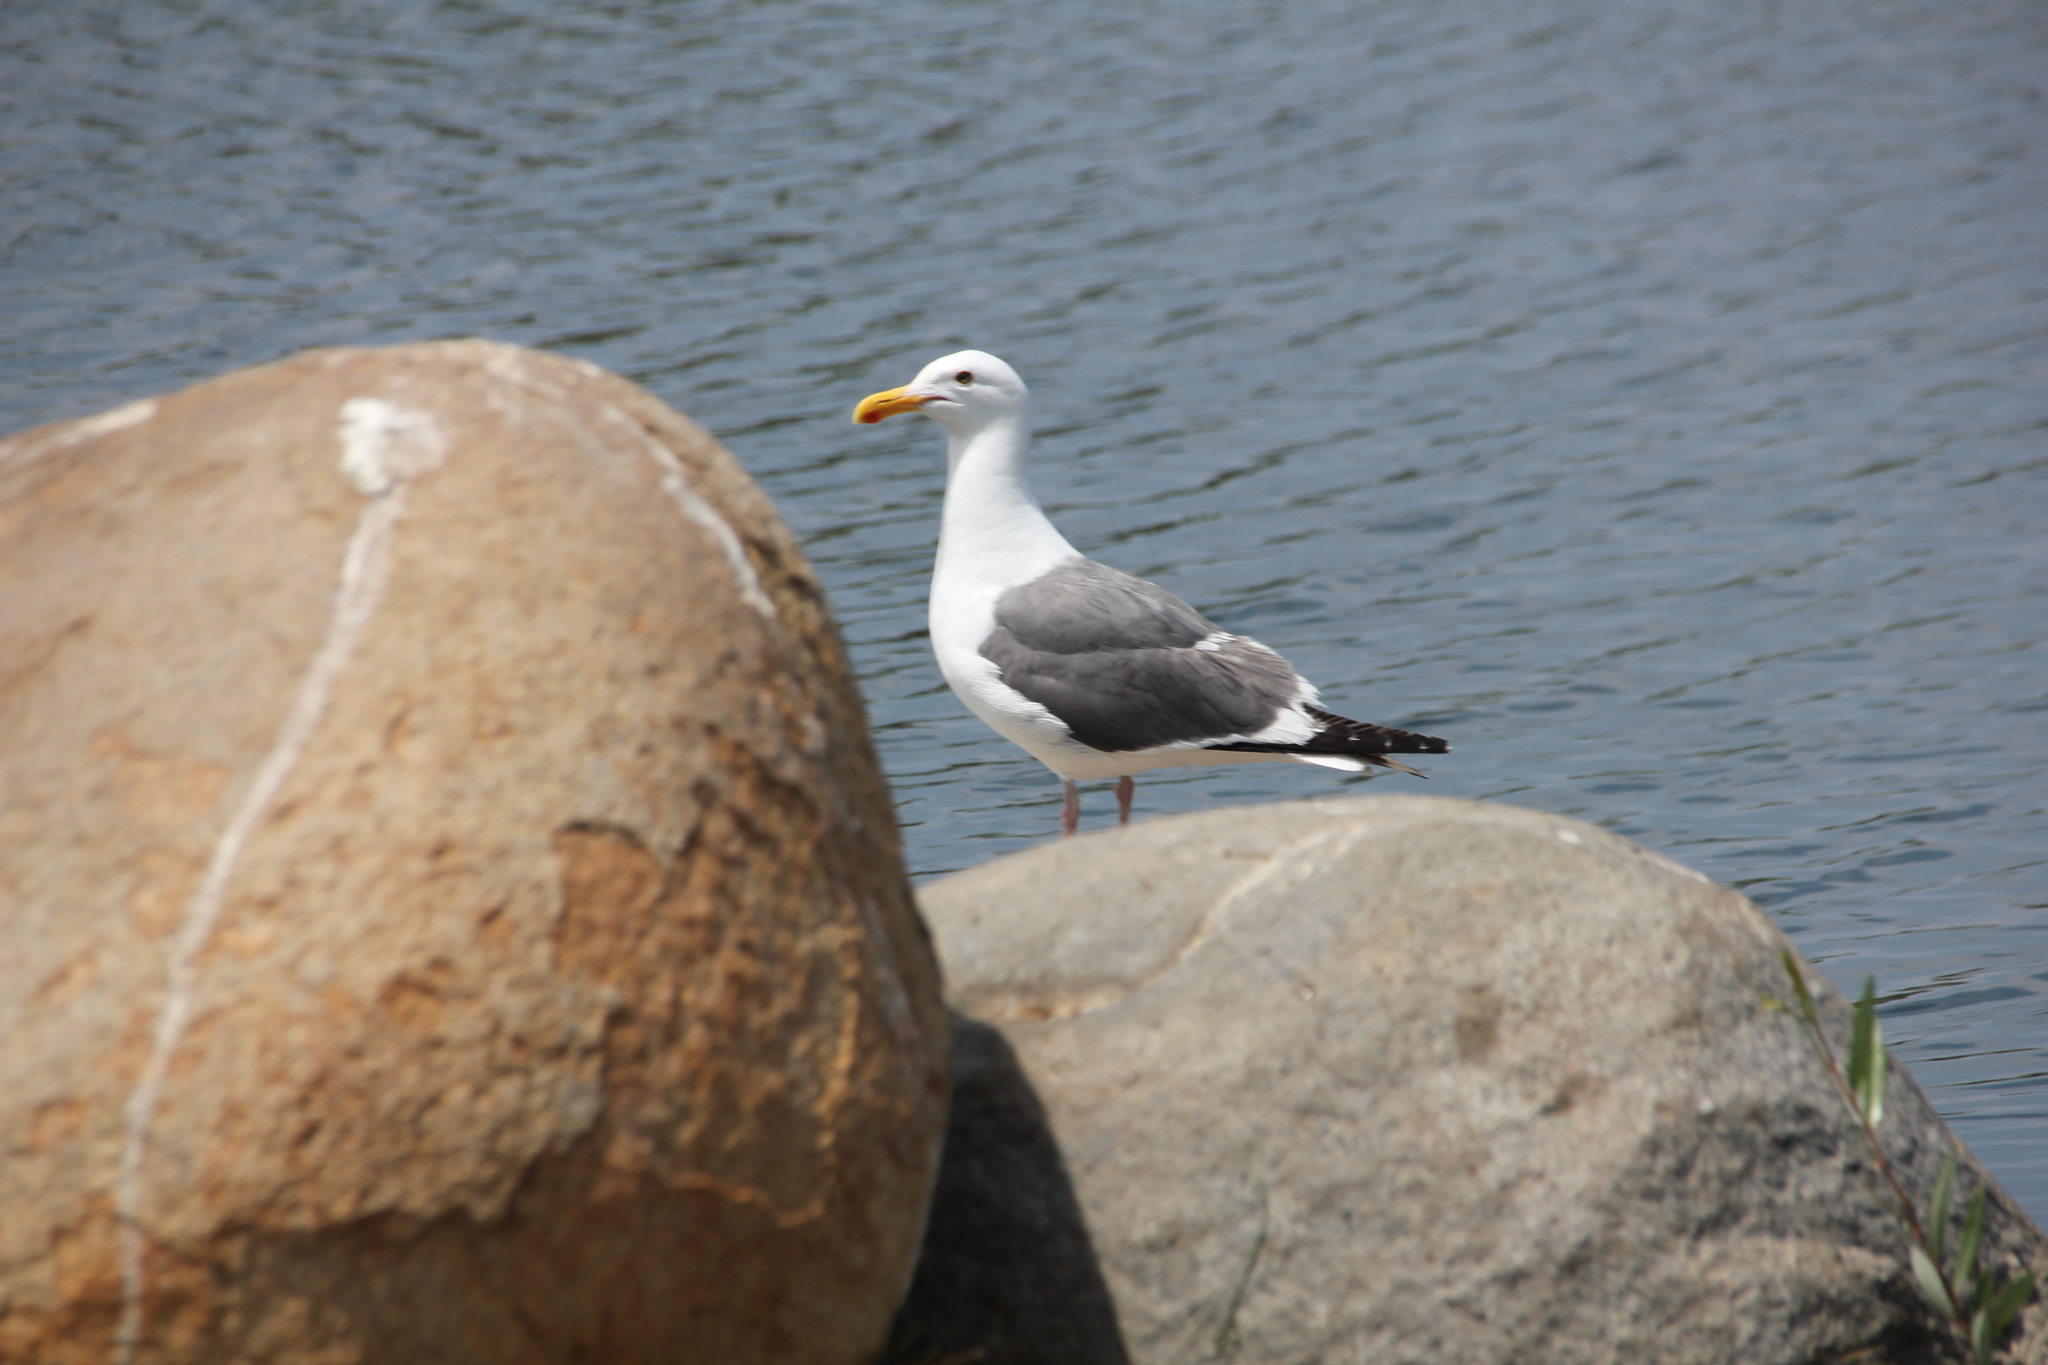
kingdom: Animalia
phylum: Chordata
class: Aves
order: Charadriiformes
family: Laridae
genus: Larus
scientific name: Larus occidentalis
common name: Western gull
